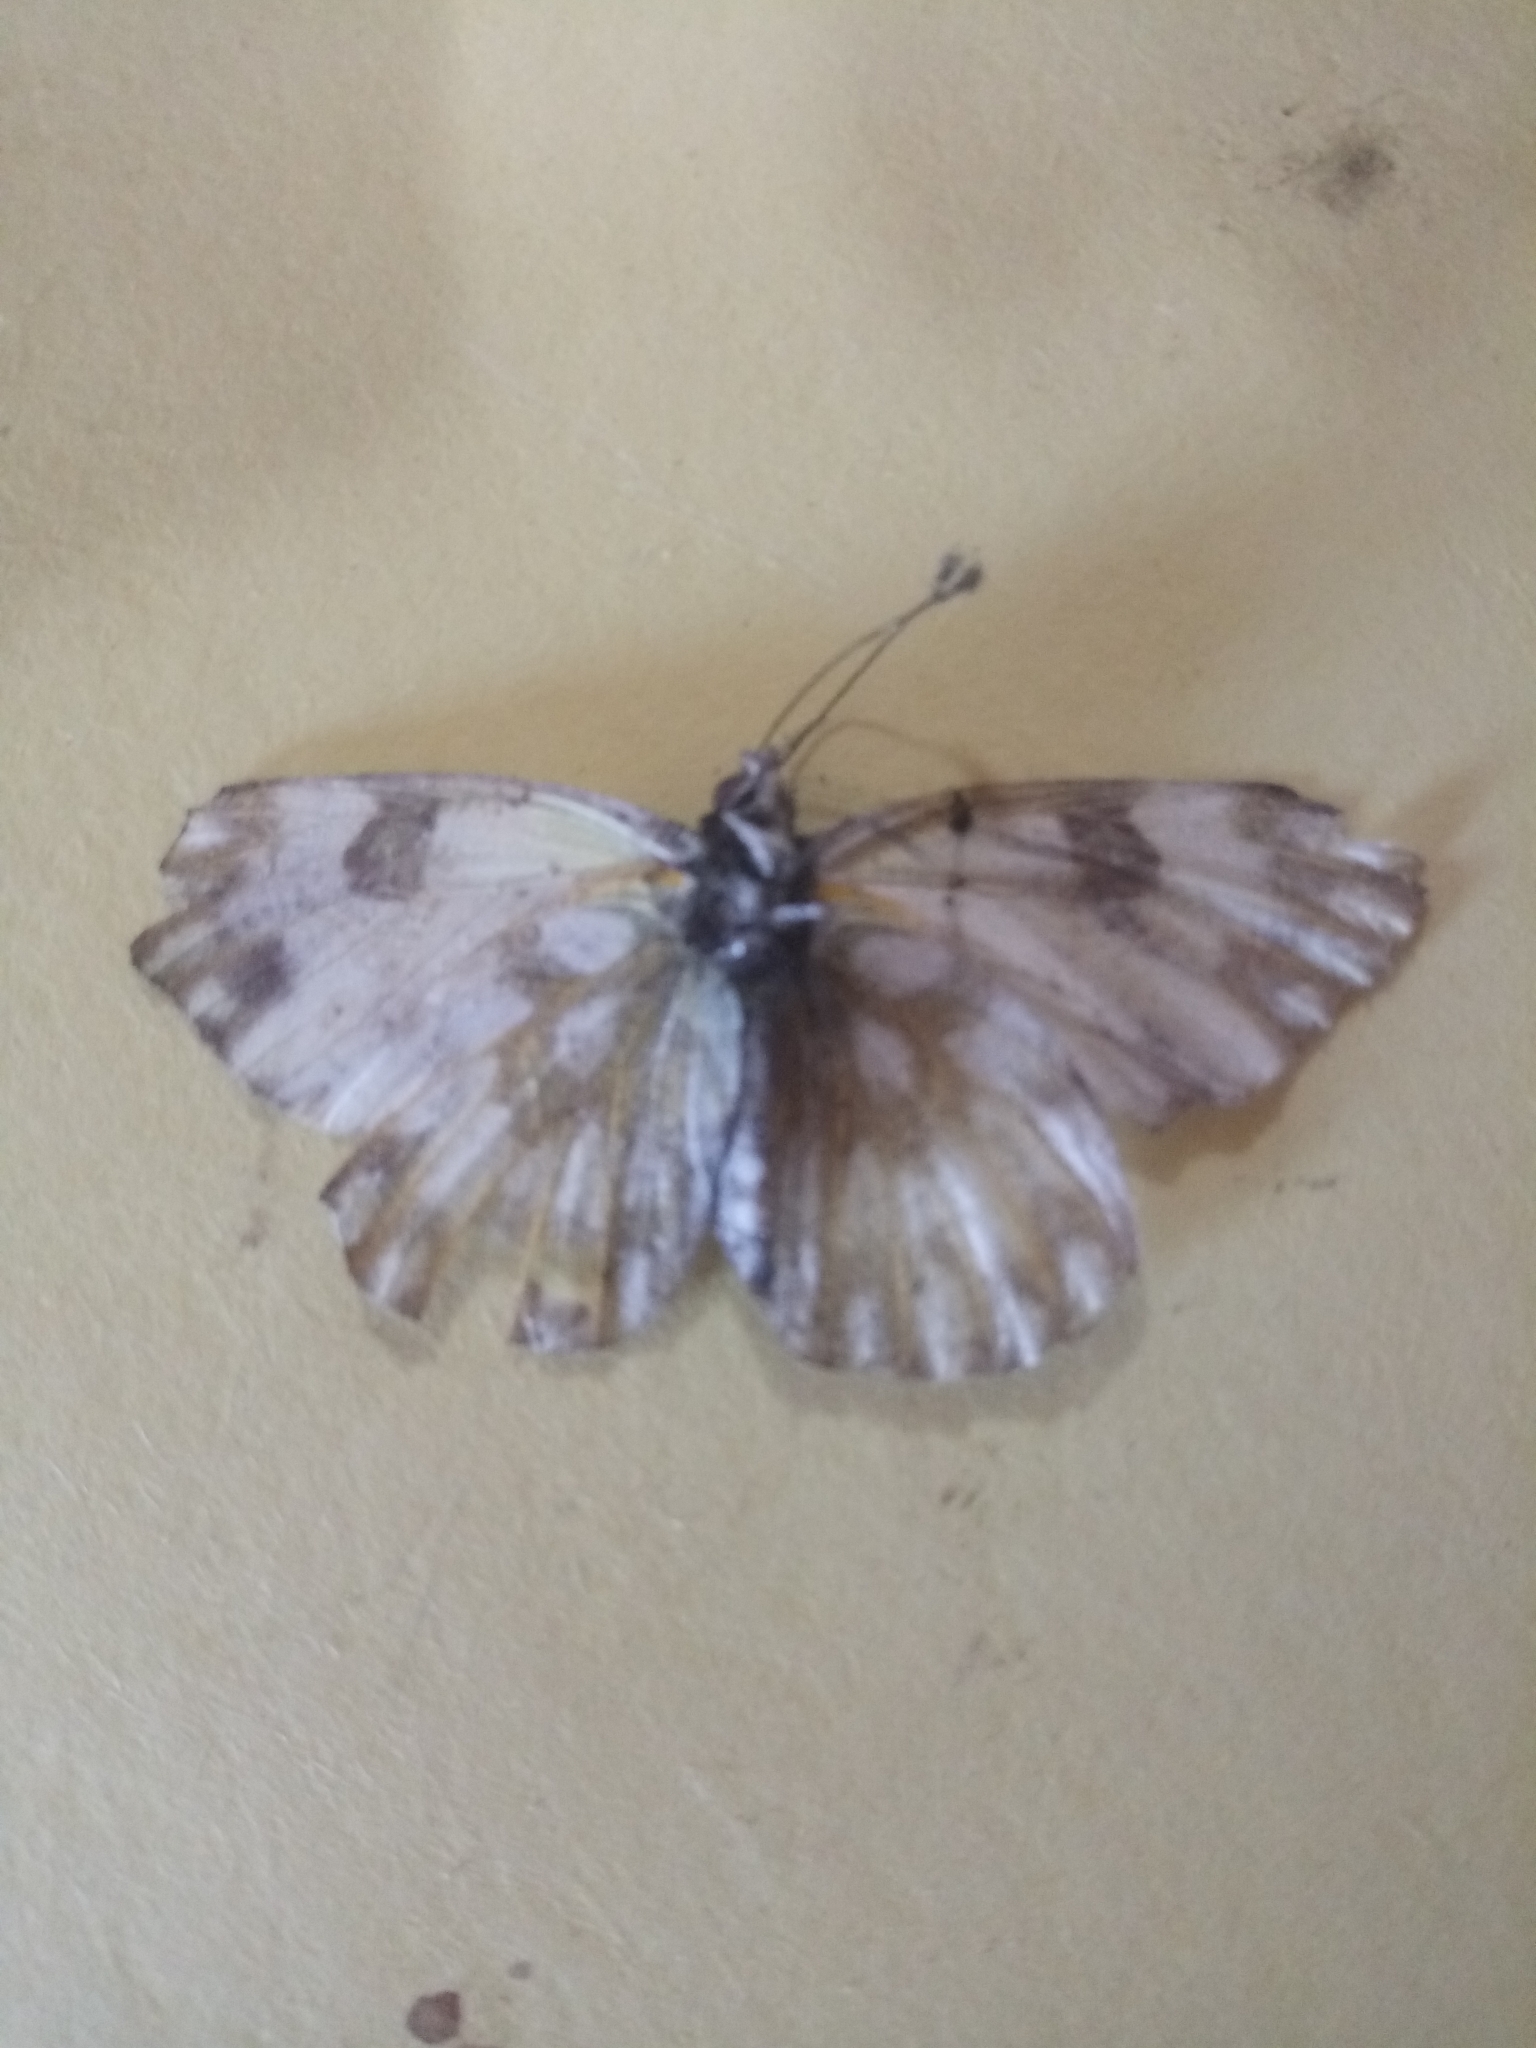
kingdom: Animalia
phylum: Arthropoda
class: Insecta
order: Lepidoptera
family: Pieridae
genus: Pontia
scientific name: Pontia glauconome
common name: Desert bath white
